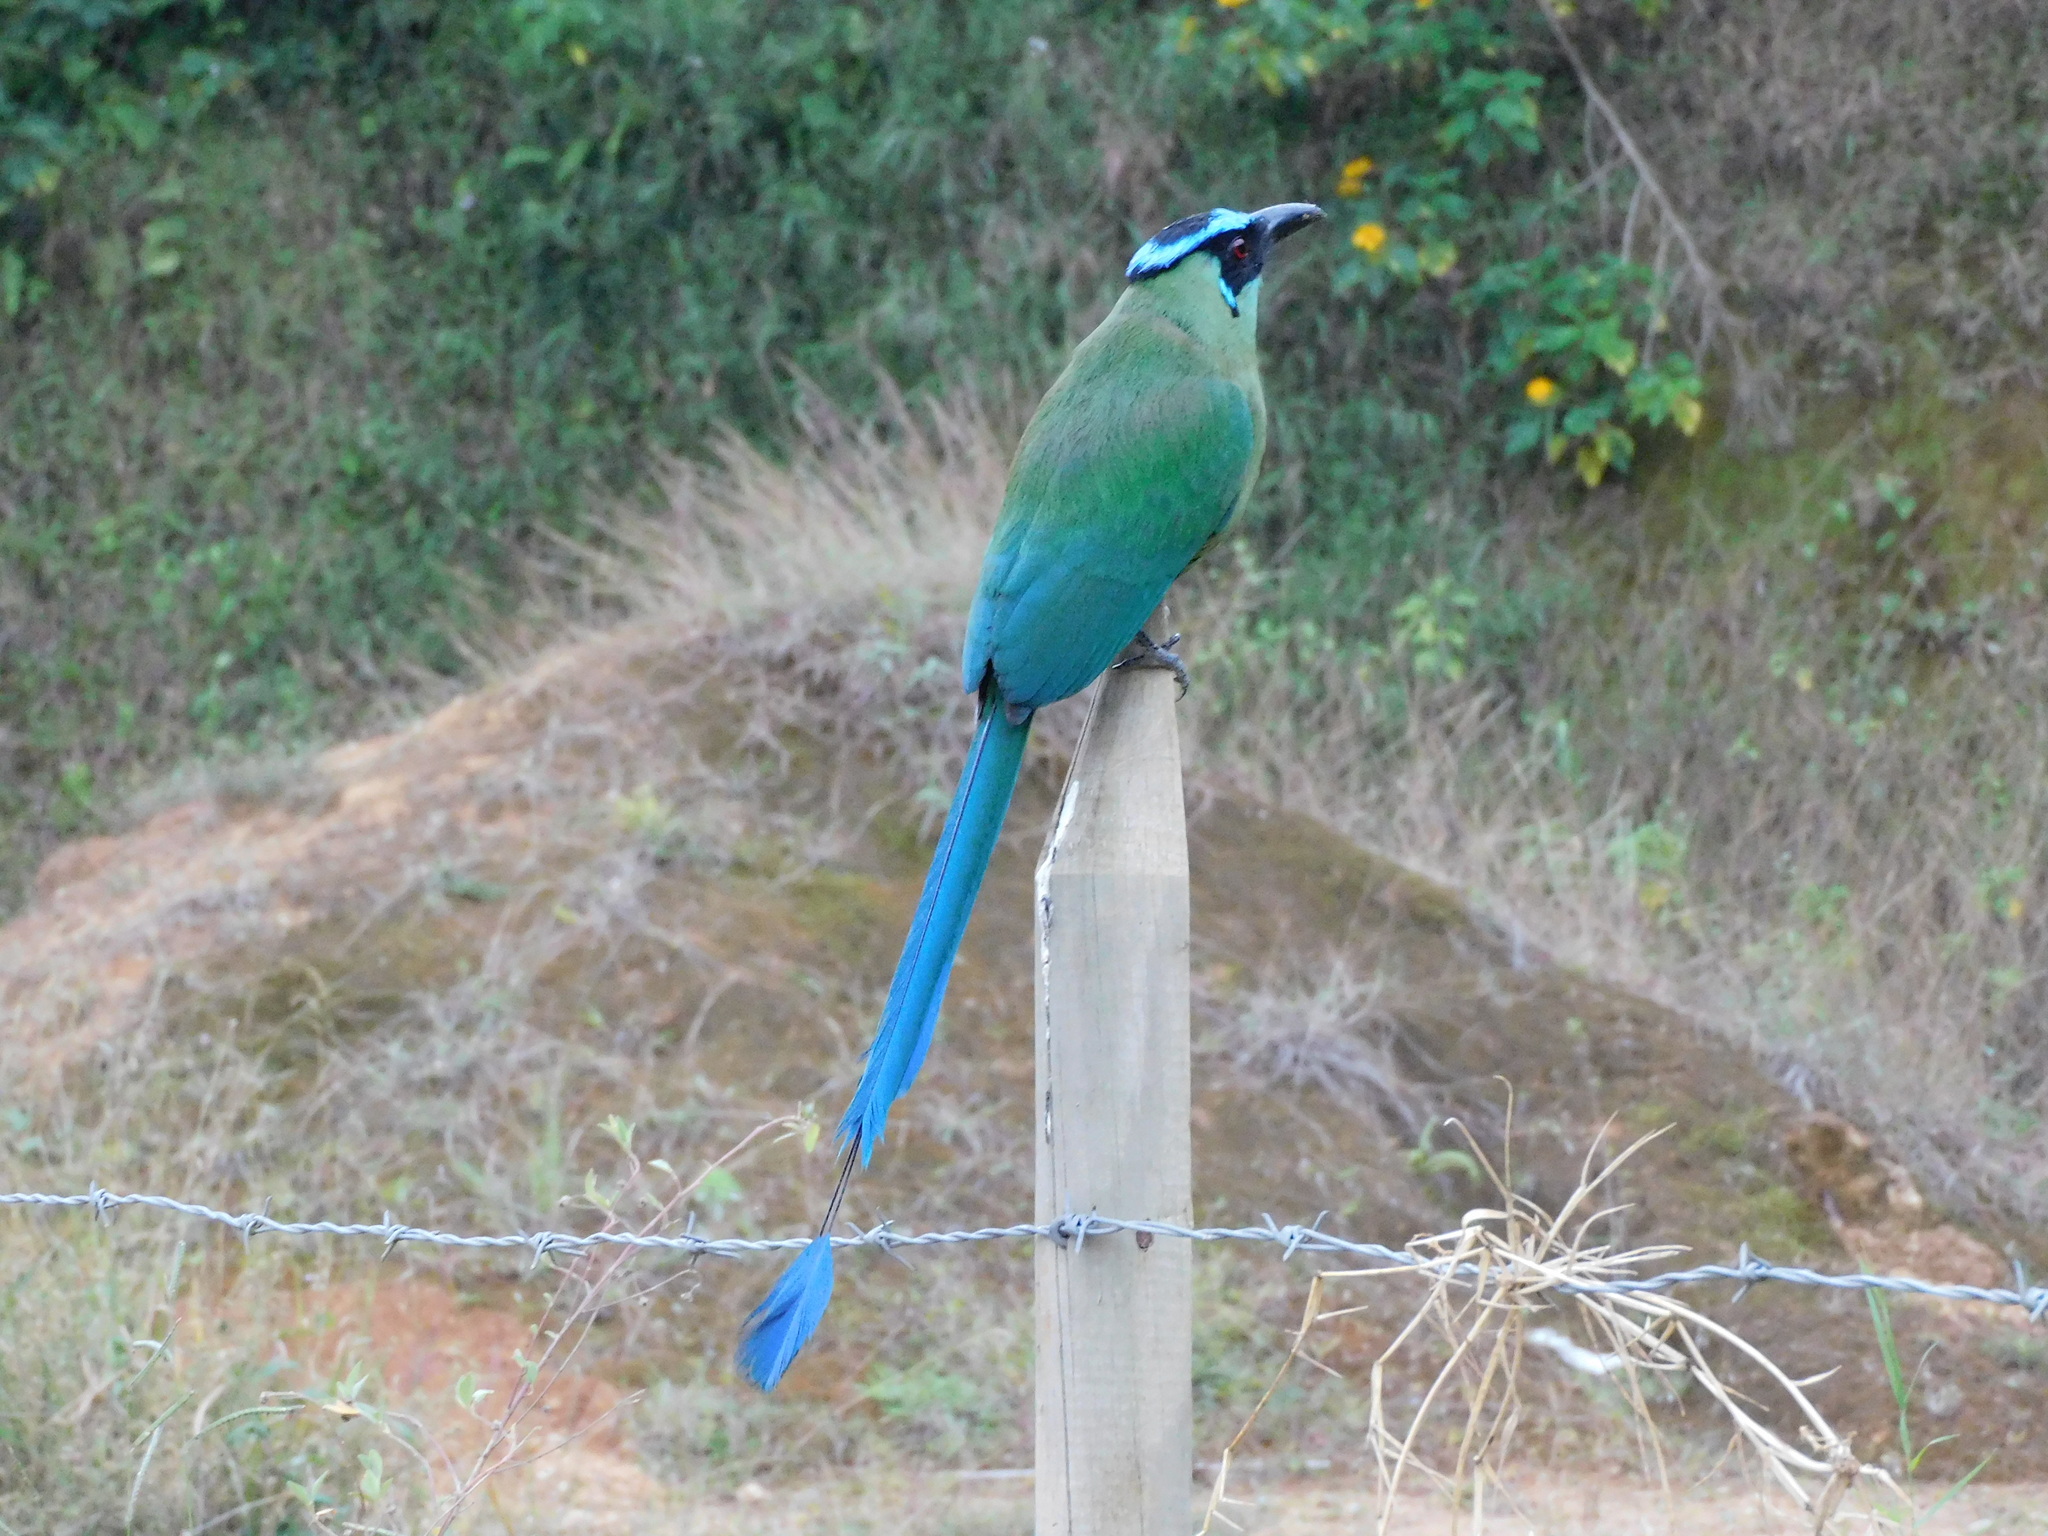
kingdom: Animalia
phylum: Chordata
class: Aves
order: Coraciiformes
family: Momotidae
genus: Momotus
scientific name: Momotus aequatorialis
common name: Andean motmot
